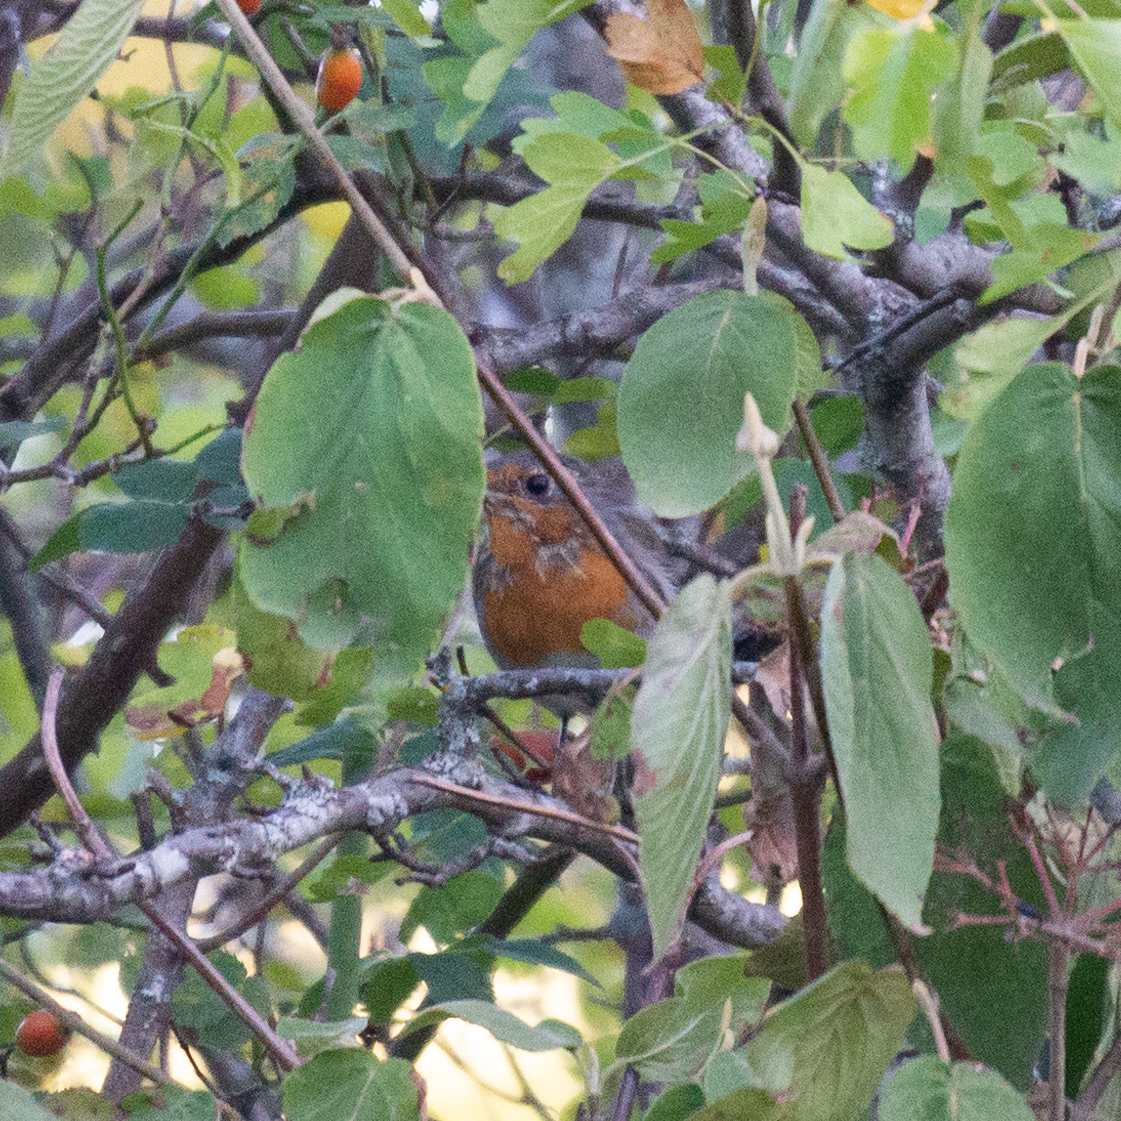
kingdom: Animalia
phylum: Chordata
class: Aves
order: Passeriformes
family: Muscicapidae
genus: Erithacus
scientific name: Erithacus rubecula
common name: European robin
